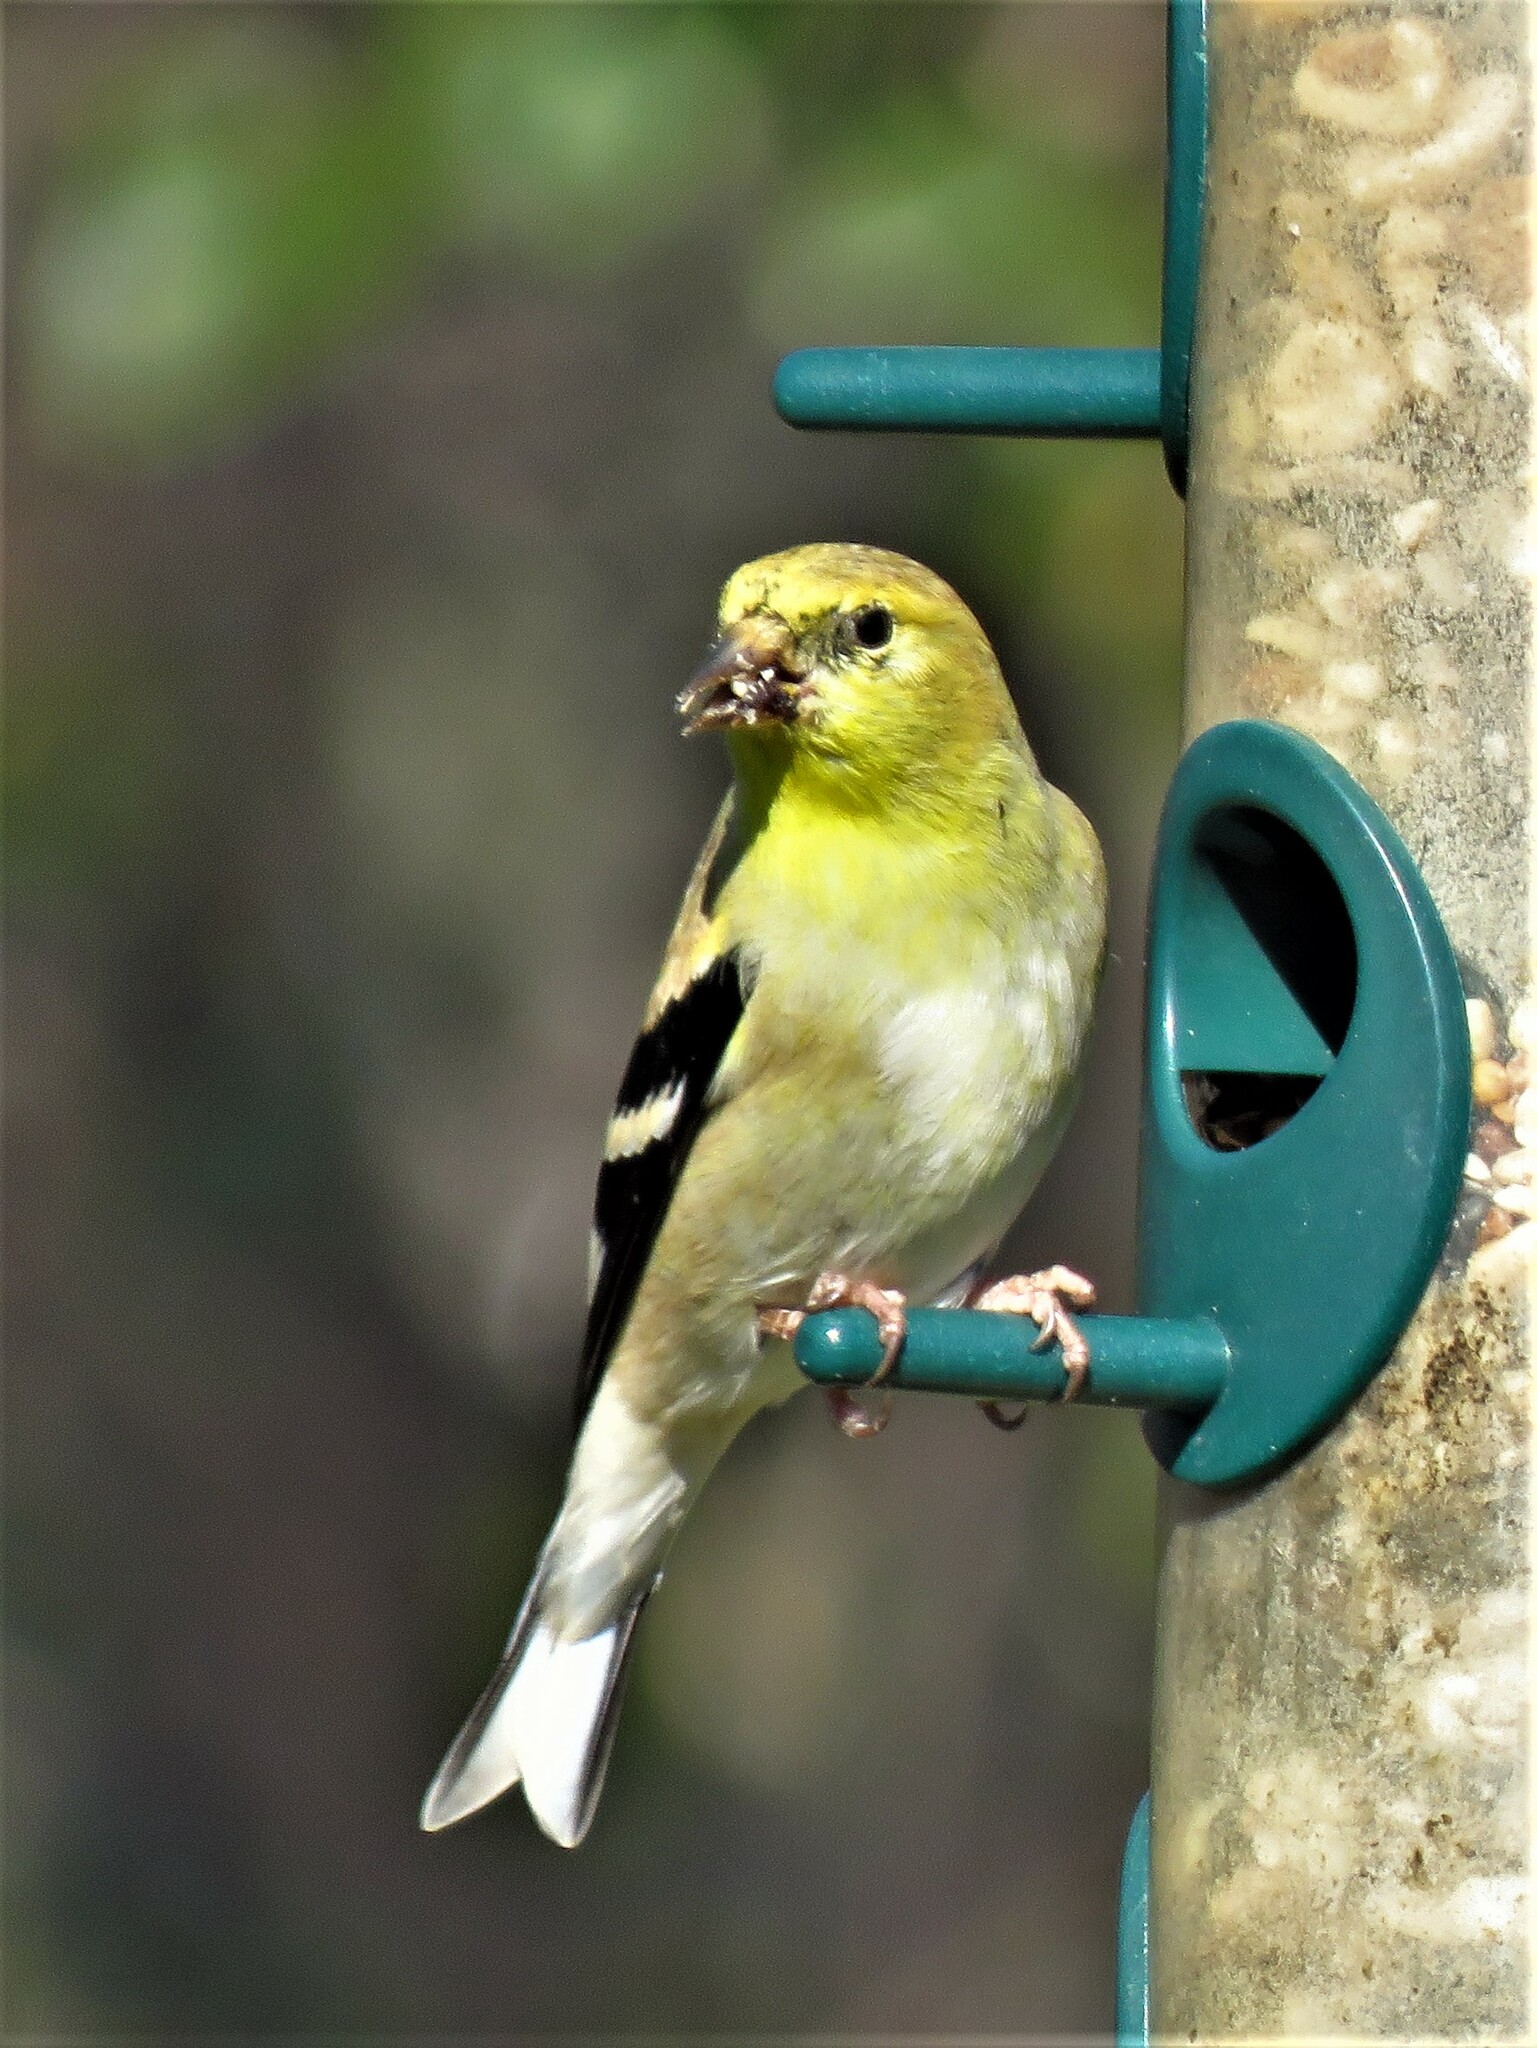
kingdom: Animalia
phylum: Chordata
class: Aves
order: Passeriformes
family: Fringillidae
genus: Spinus
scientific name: Spinus tristis
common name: American goldfinch
